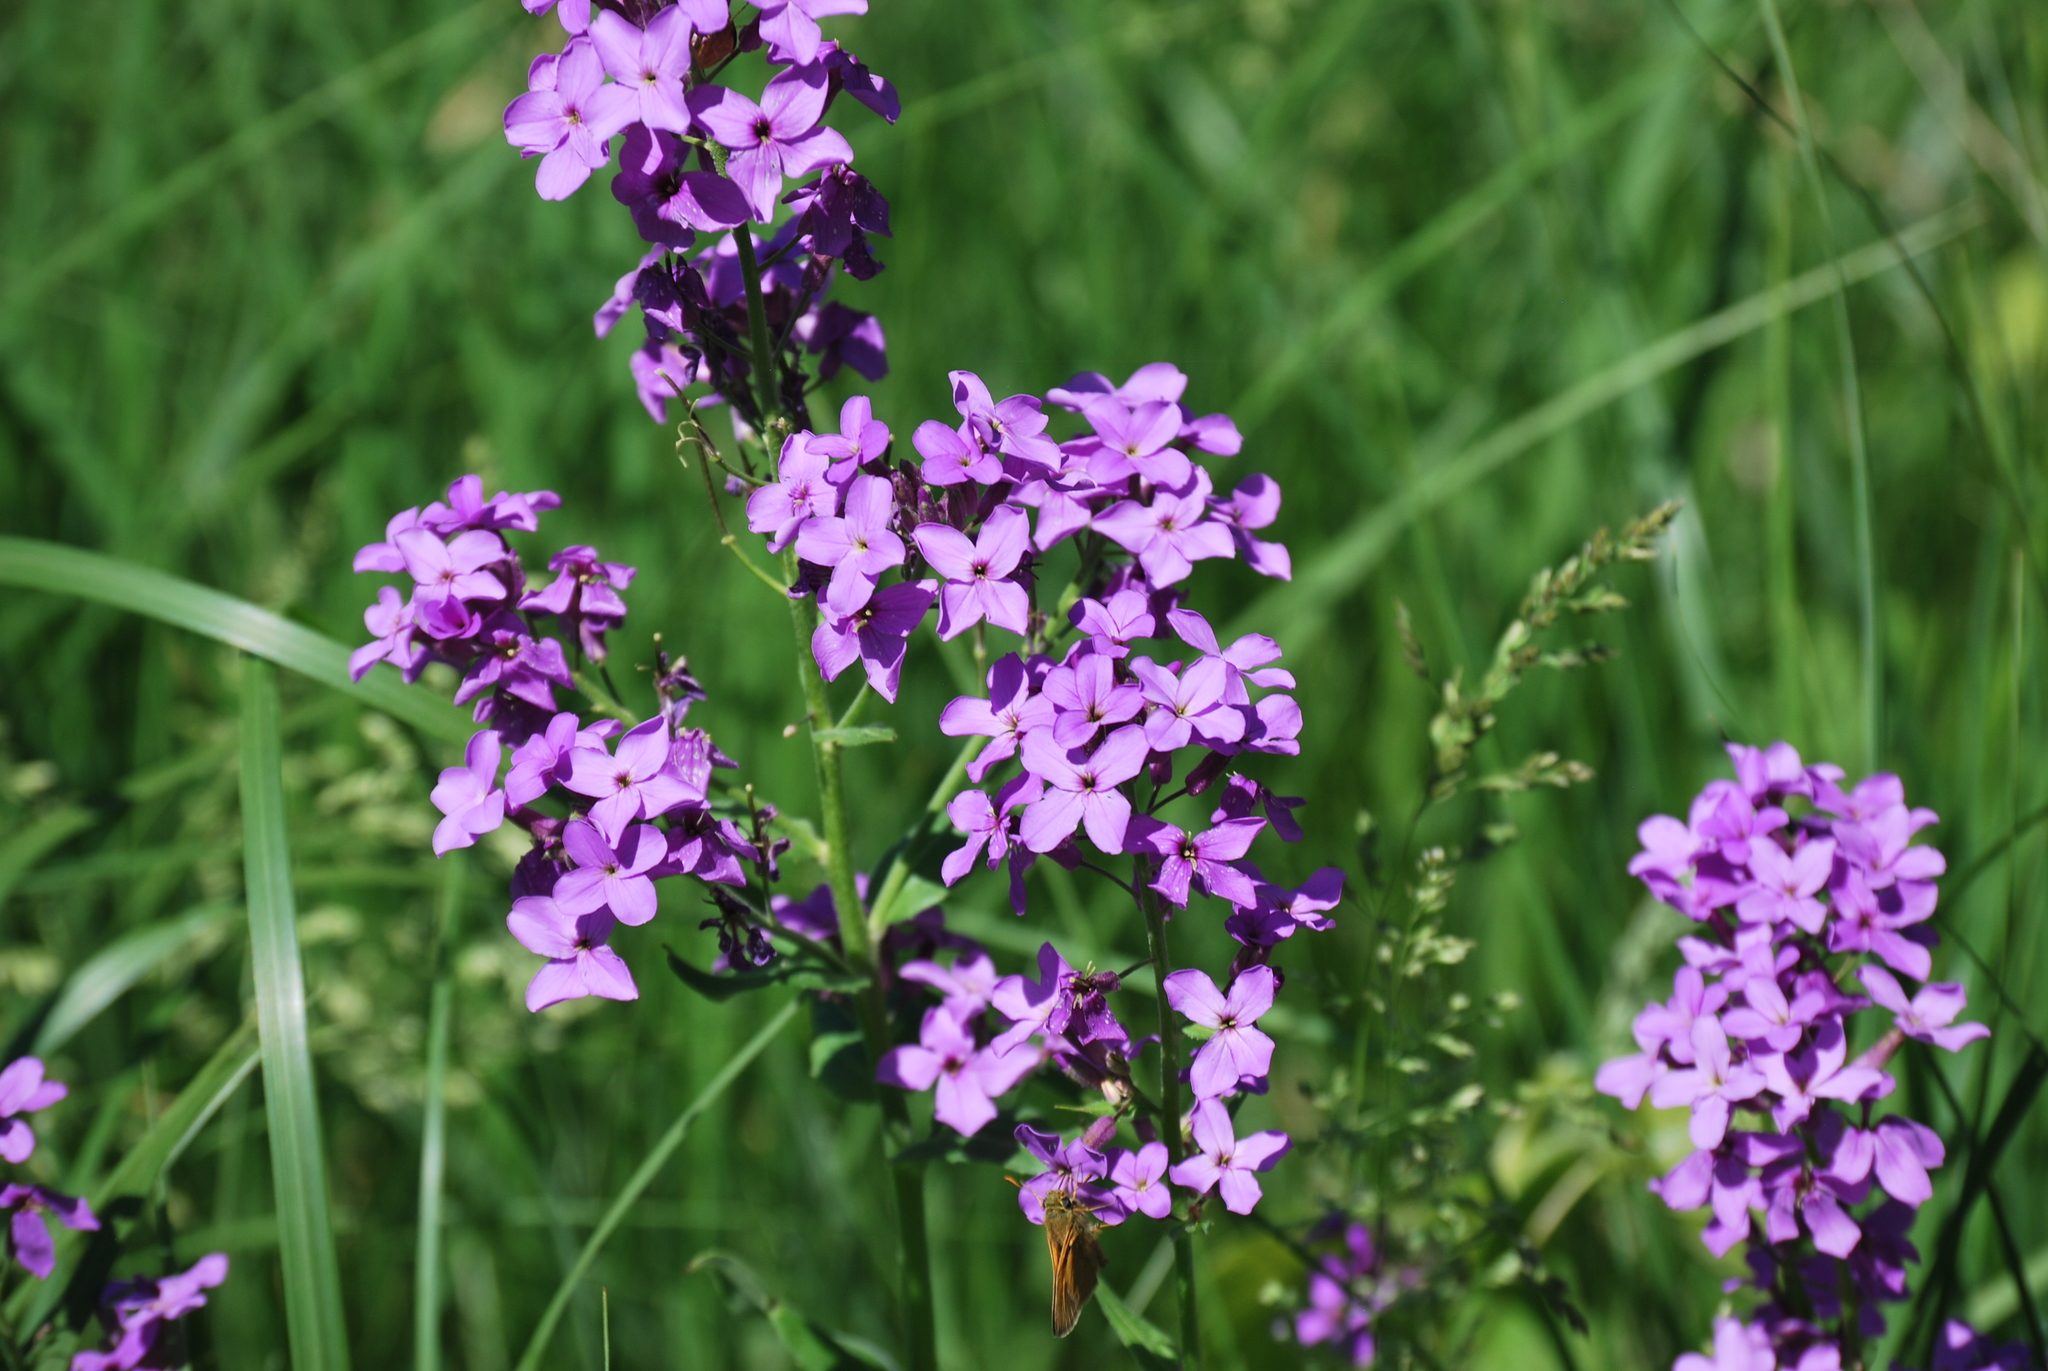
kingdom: Plantae
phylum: Tracheophyta
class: Magnoliopsida
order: Brassicales
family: Brassicaceae
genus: Hesperis
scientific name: Hesperis matronalis
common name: Dame's-violet
